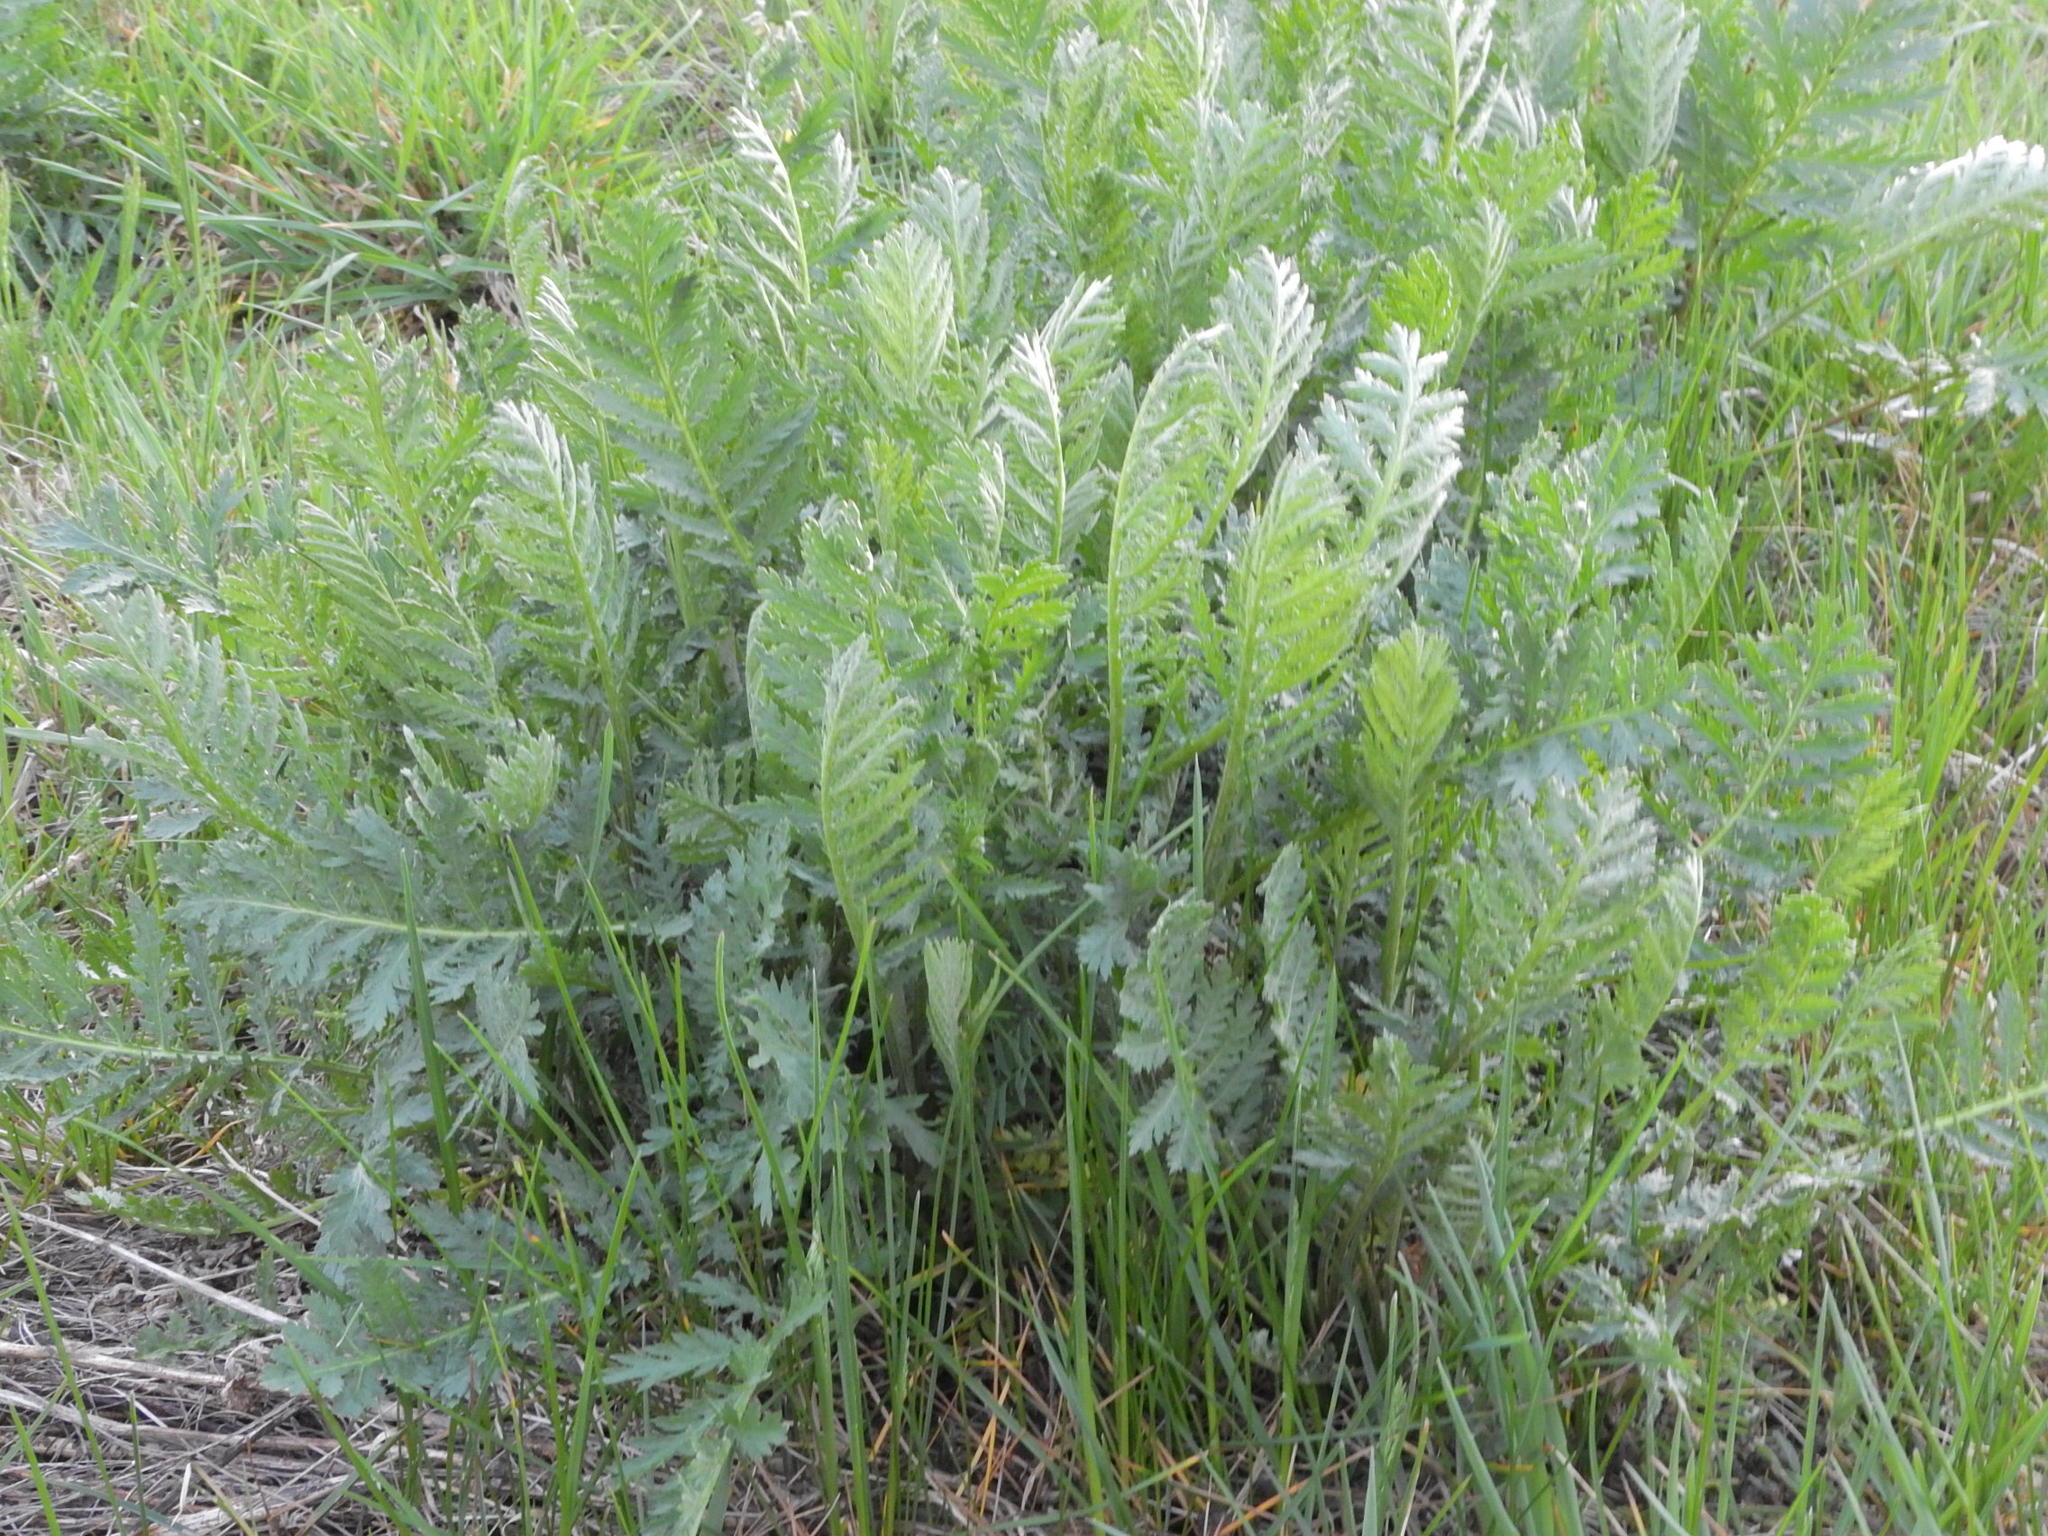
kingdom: Plantae
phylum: Tracheophyta
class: Magnoliopsida
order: Asterales
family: Asteraceae
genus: Tanacetum
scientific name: Tanacetum vulgare
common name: Common tansy
